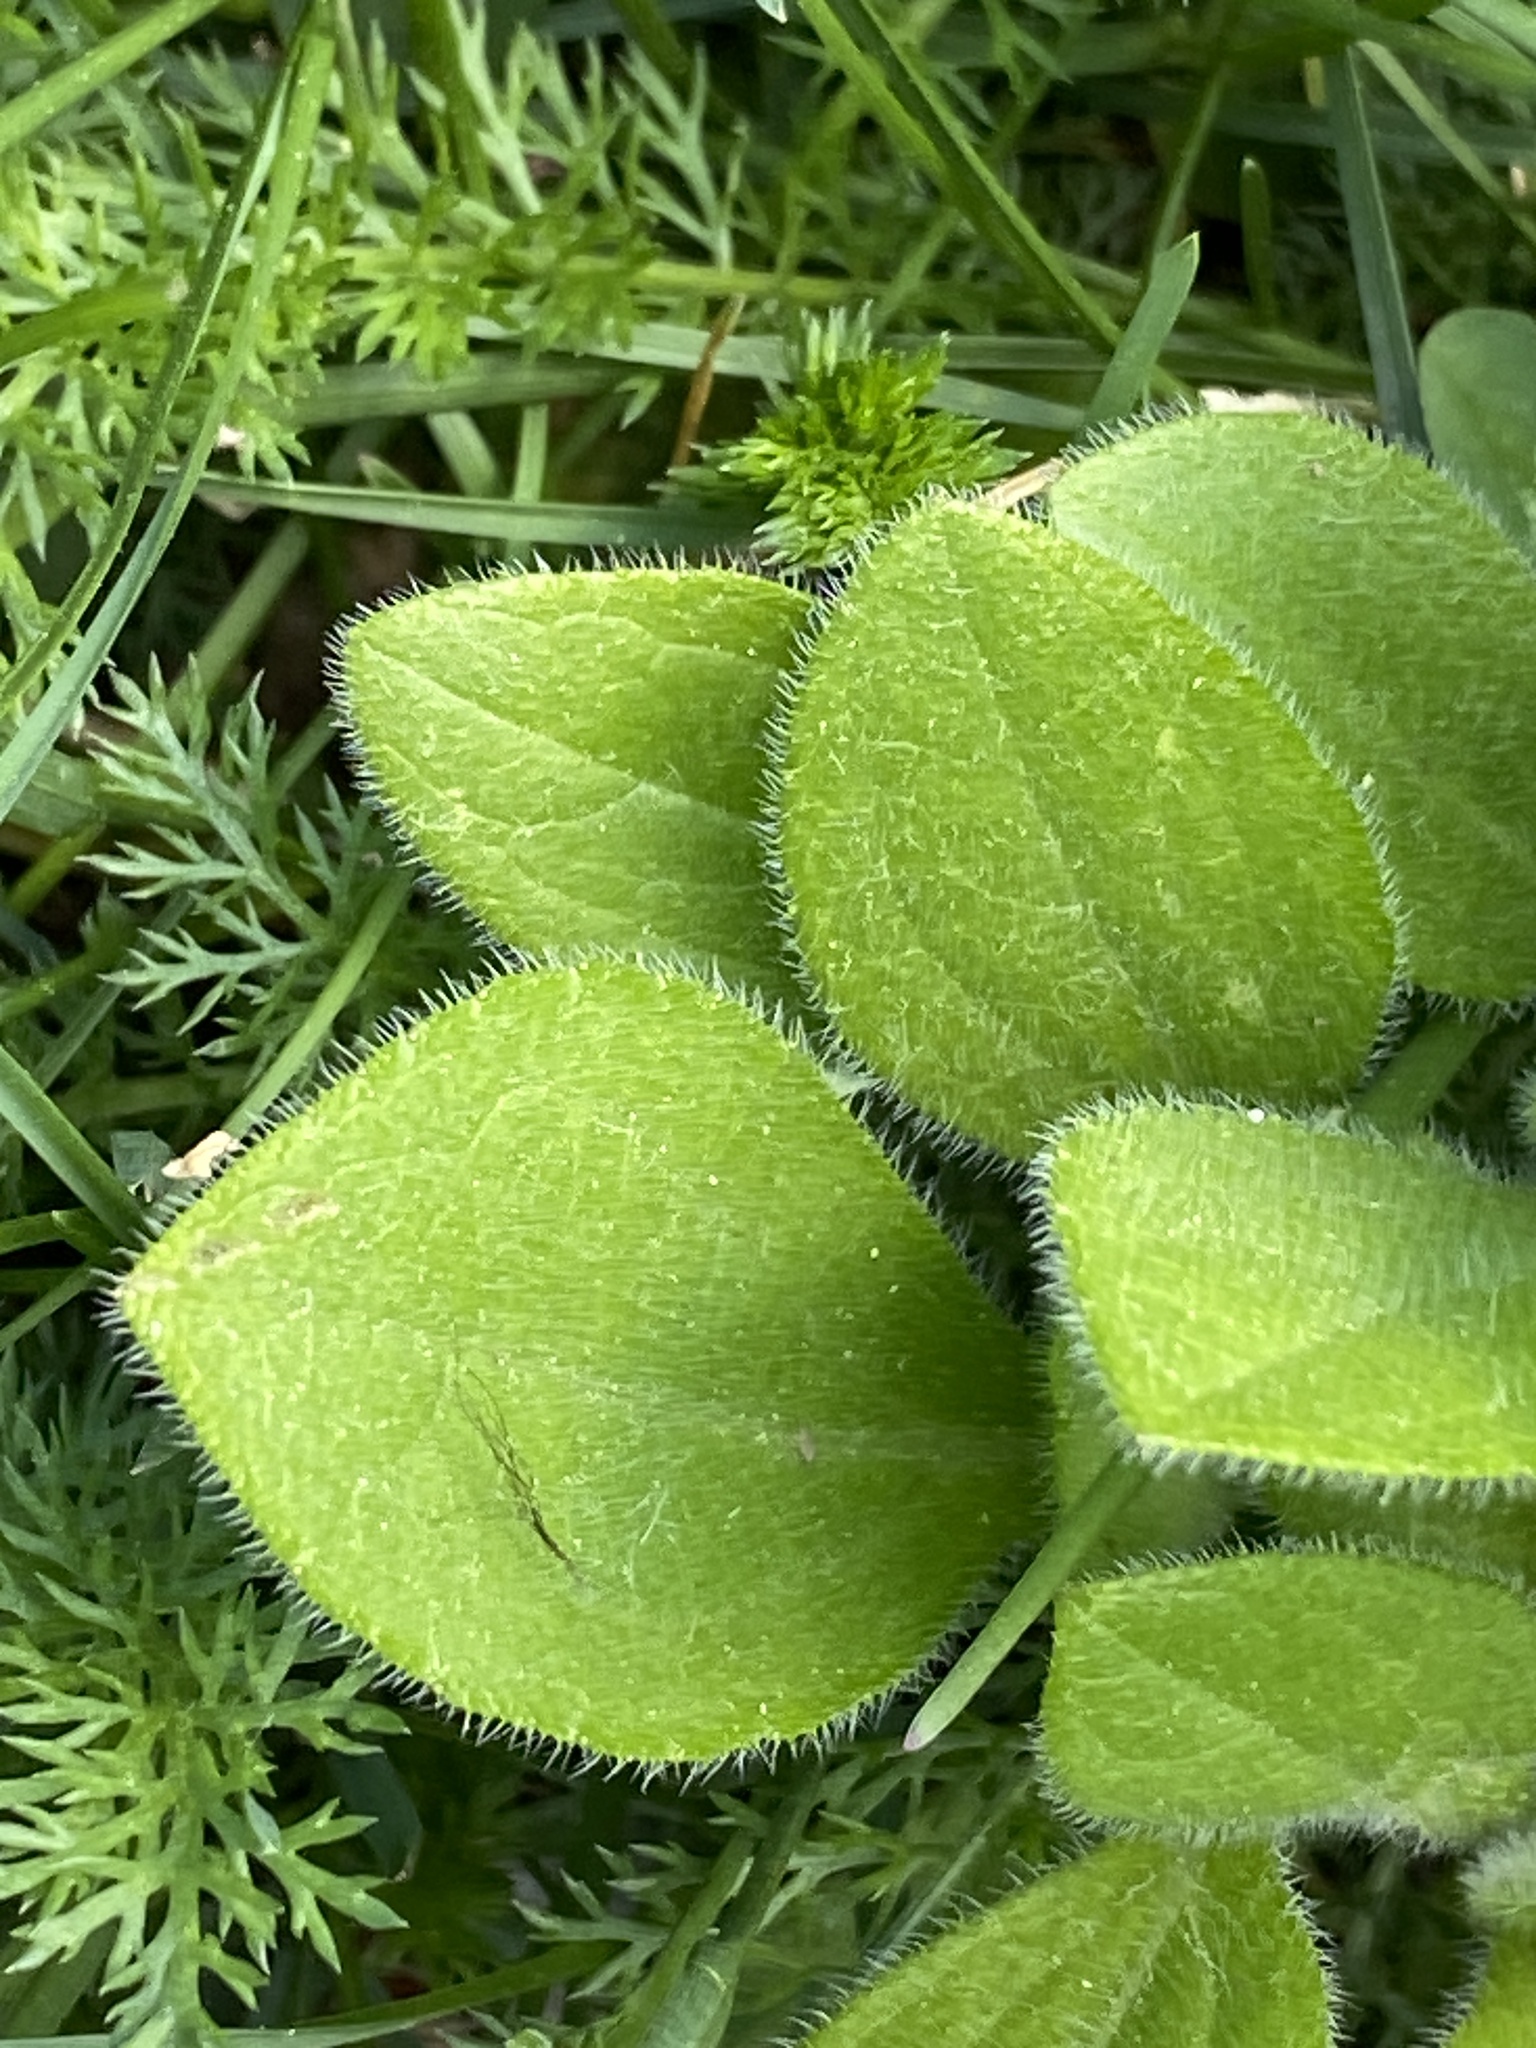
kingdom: Plantae
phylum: Tracheophyta
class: Magnoliopsida
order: Asterales
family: Asteraceae
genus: Rudbeckia
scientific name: Rudbeckia hirta
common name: Black-eyed-susan
